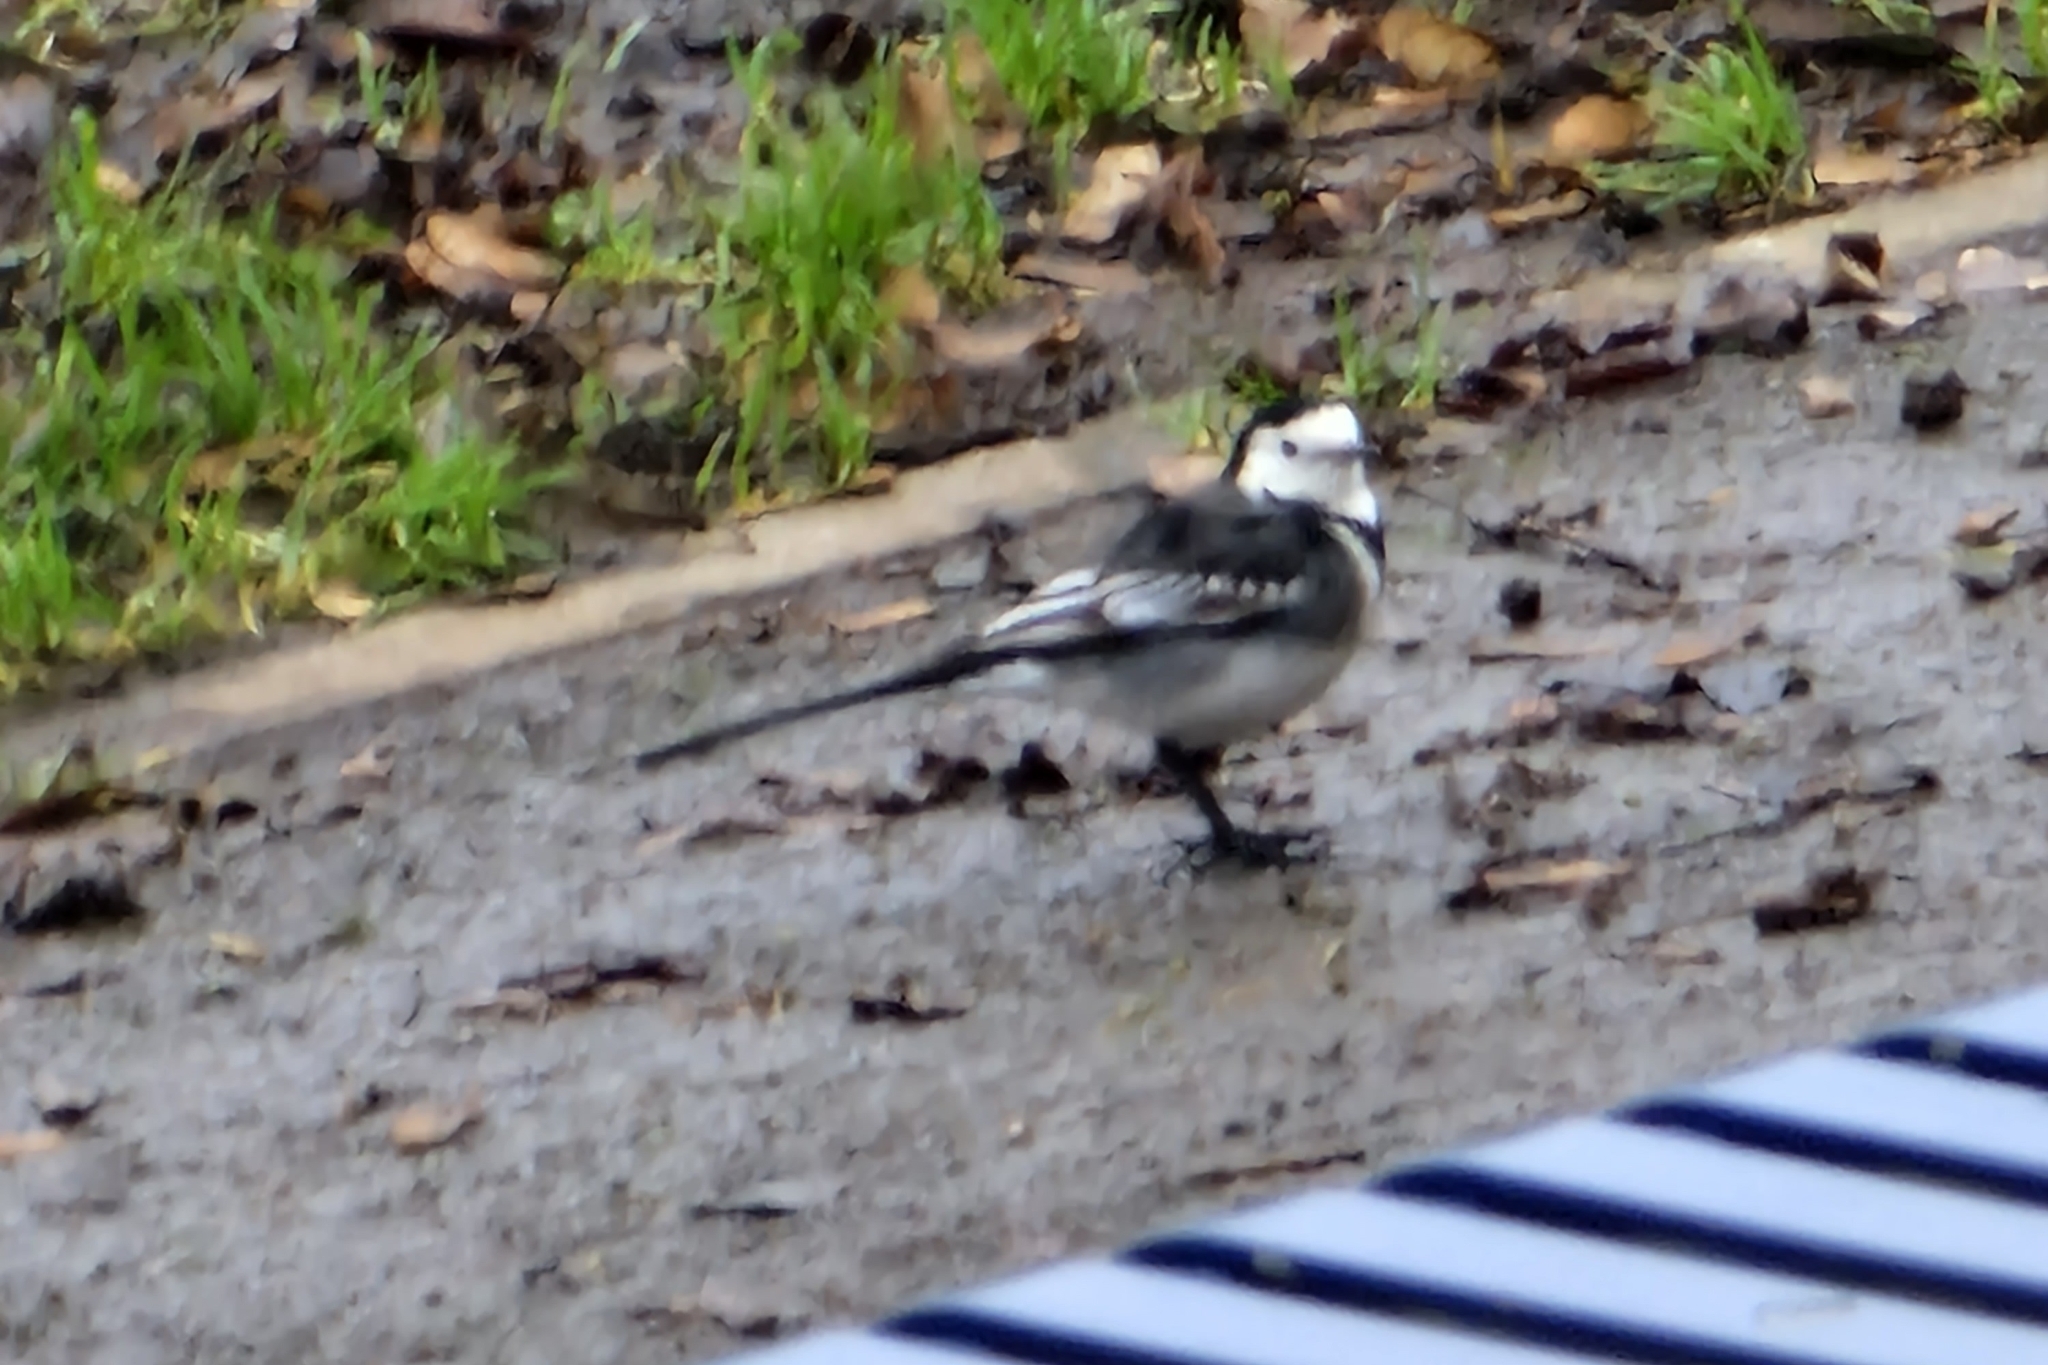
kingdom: Animalia
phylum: Chordata
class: Aves
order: Passeriformes
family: Motacillidae
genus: Motacilla
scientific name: Motacilla alba
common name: White wagtail
